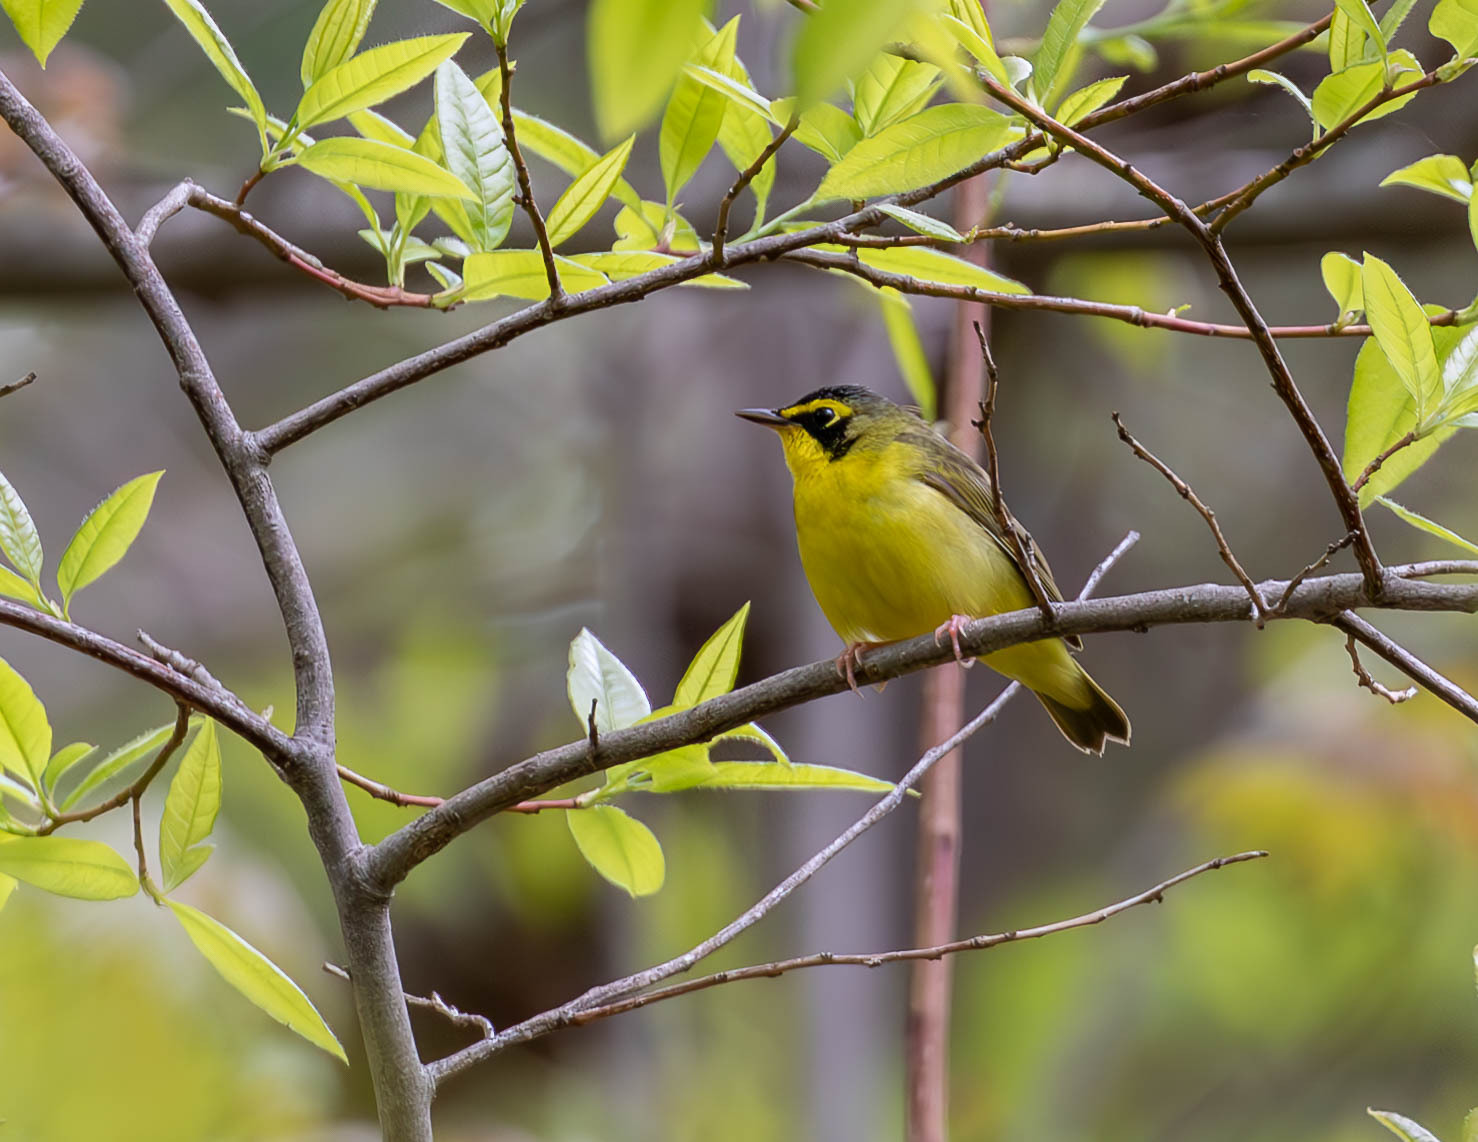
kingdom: Animalia
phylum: Chordata
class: Aves
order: Passeriformes
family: Parulidae
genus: Geothlypis
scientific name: Geothlypis formosa
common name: Kentucky warbler
